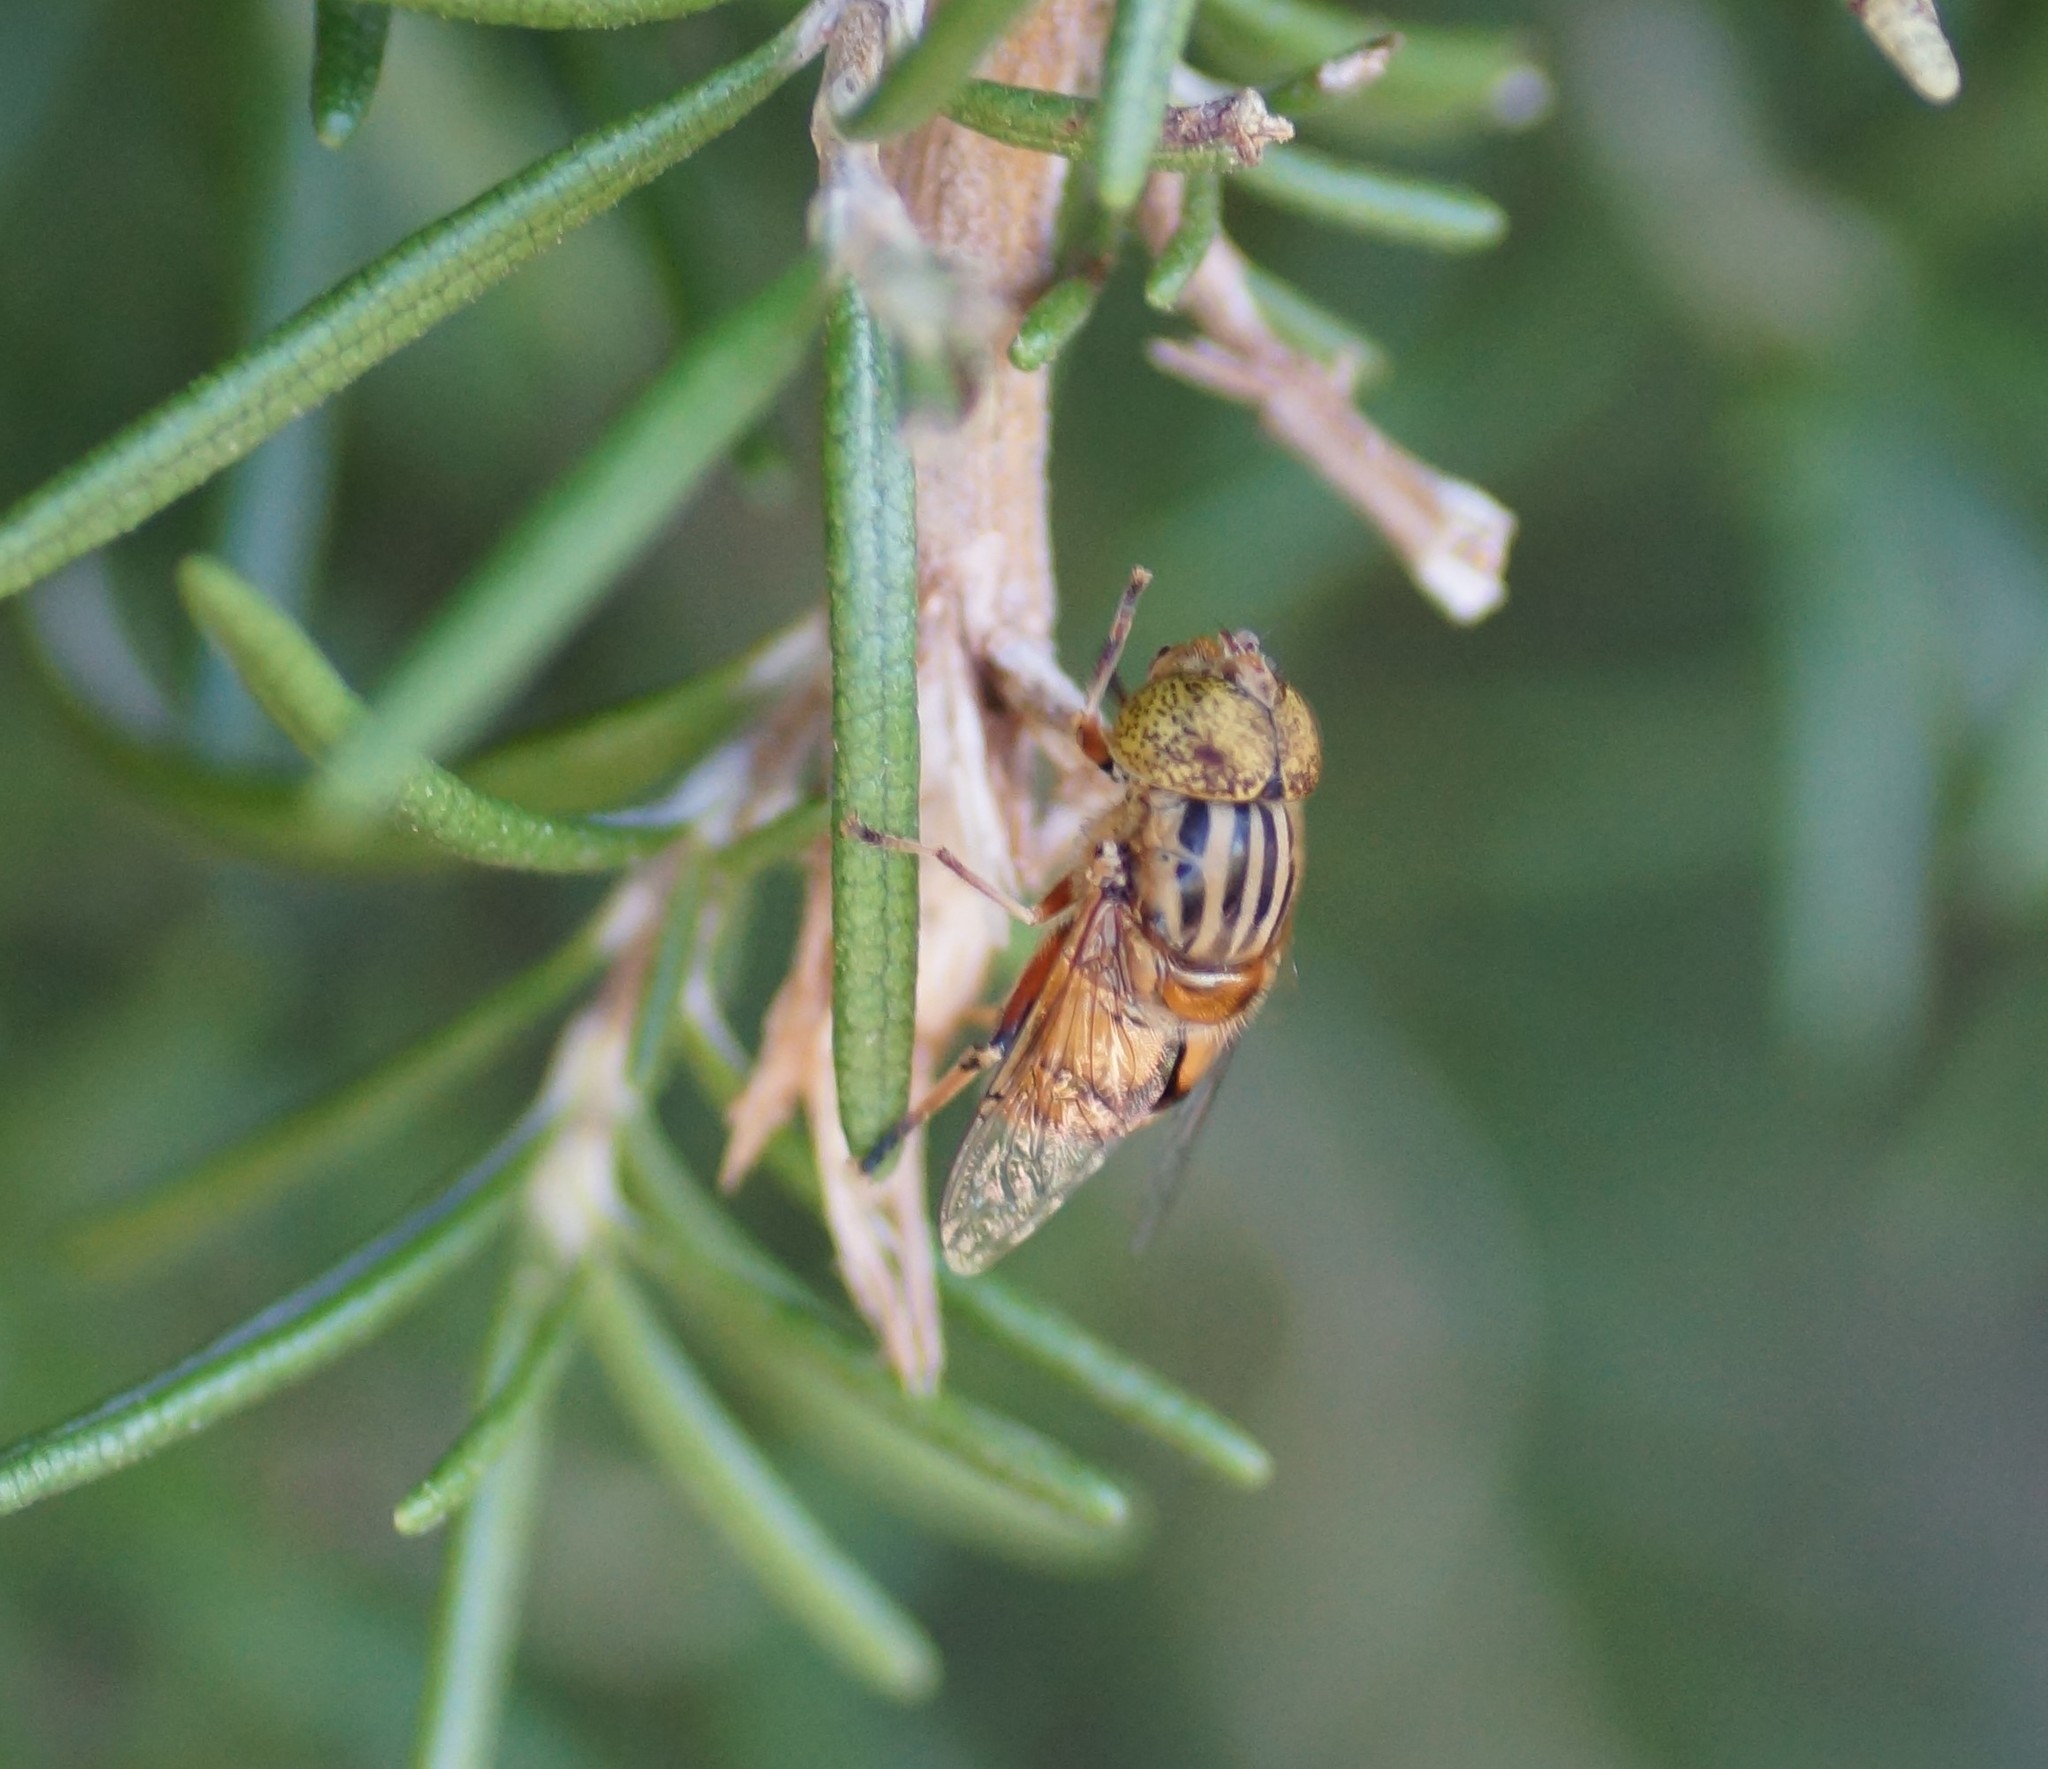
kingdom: Animalia
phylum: Arthropoda
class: Insecta
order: Diptera
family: Syrphidae
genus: Eristalinus
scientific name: Eristalinus punctulatus
